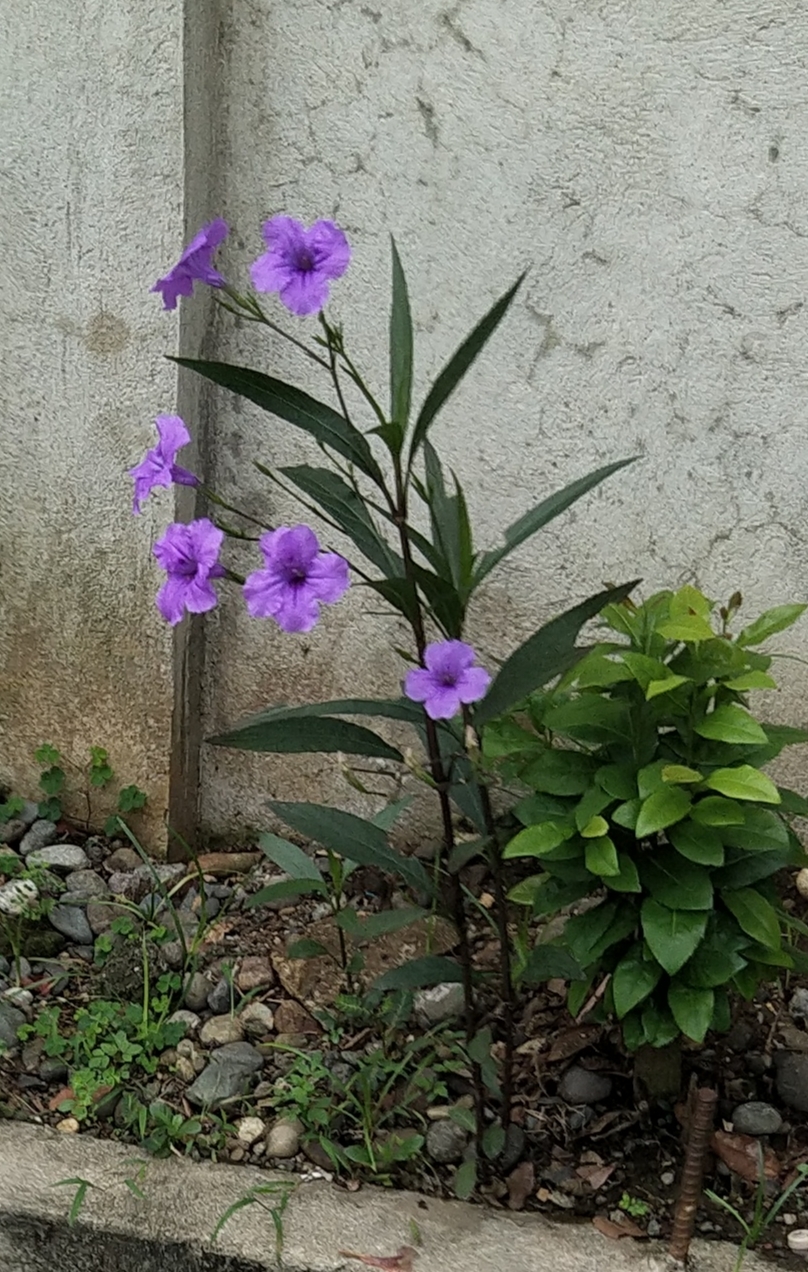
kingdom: Plantae
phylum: Tracheophyta
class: Magnoliopsida
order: Lamiales
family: Acanthaceae
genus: Ruellia
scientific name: Ruellia simplex
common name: Softseed wild petunia
